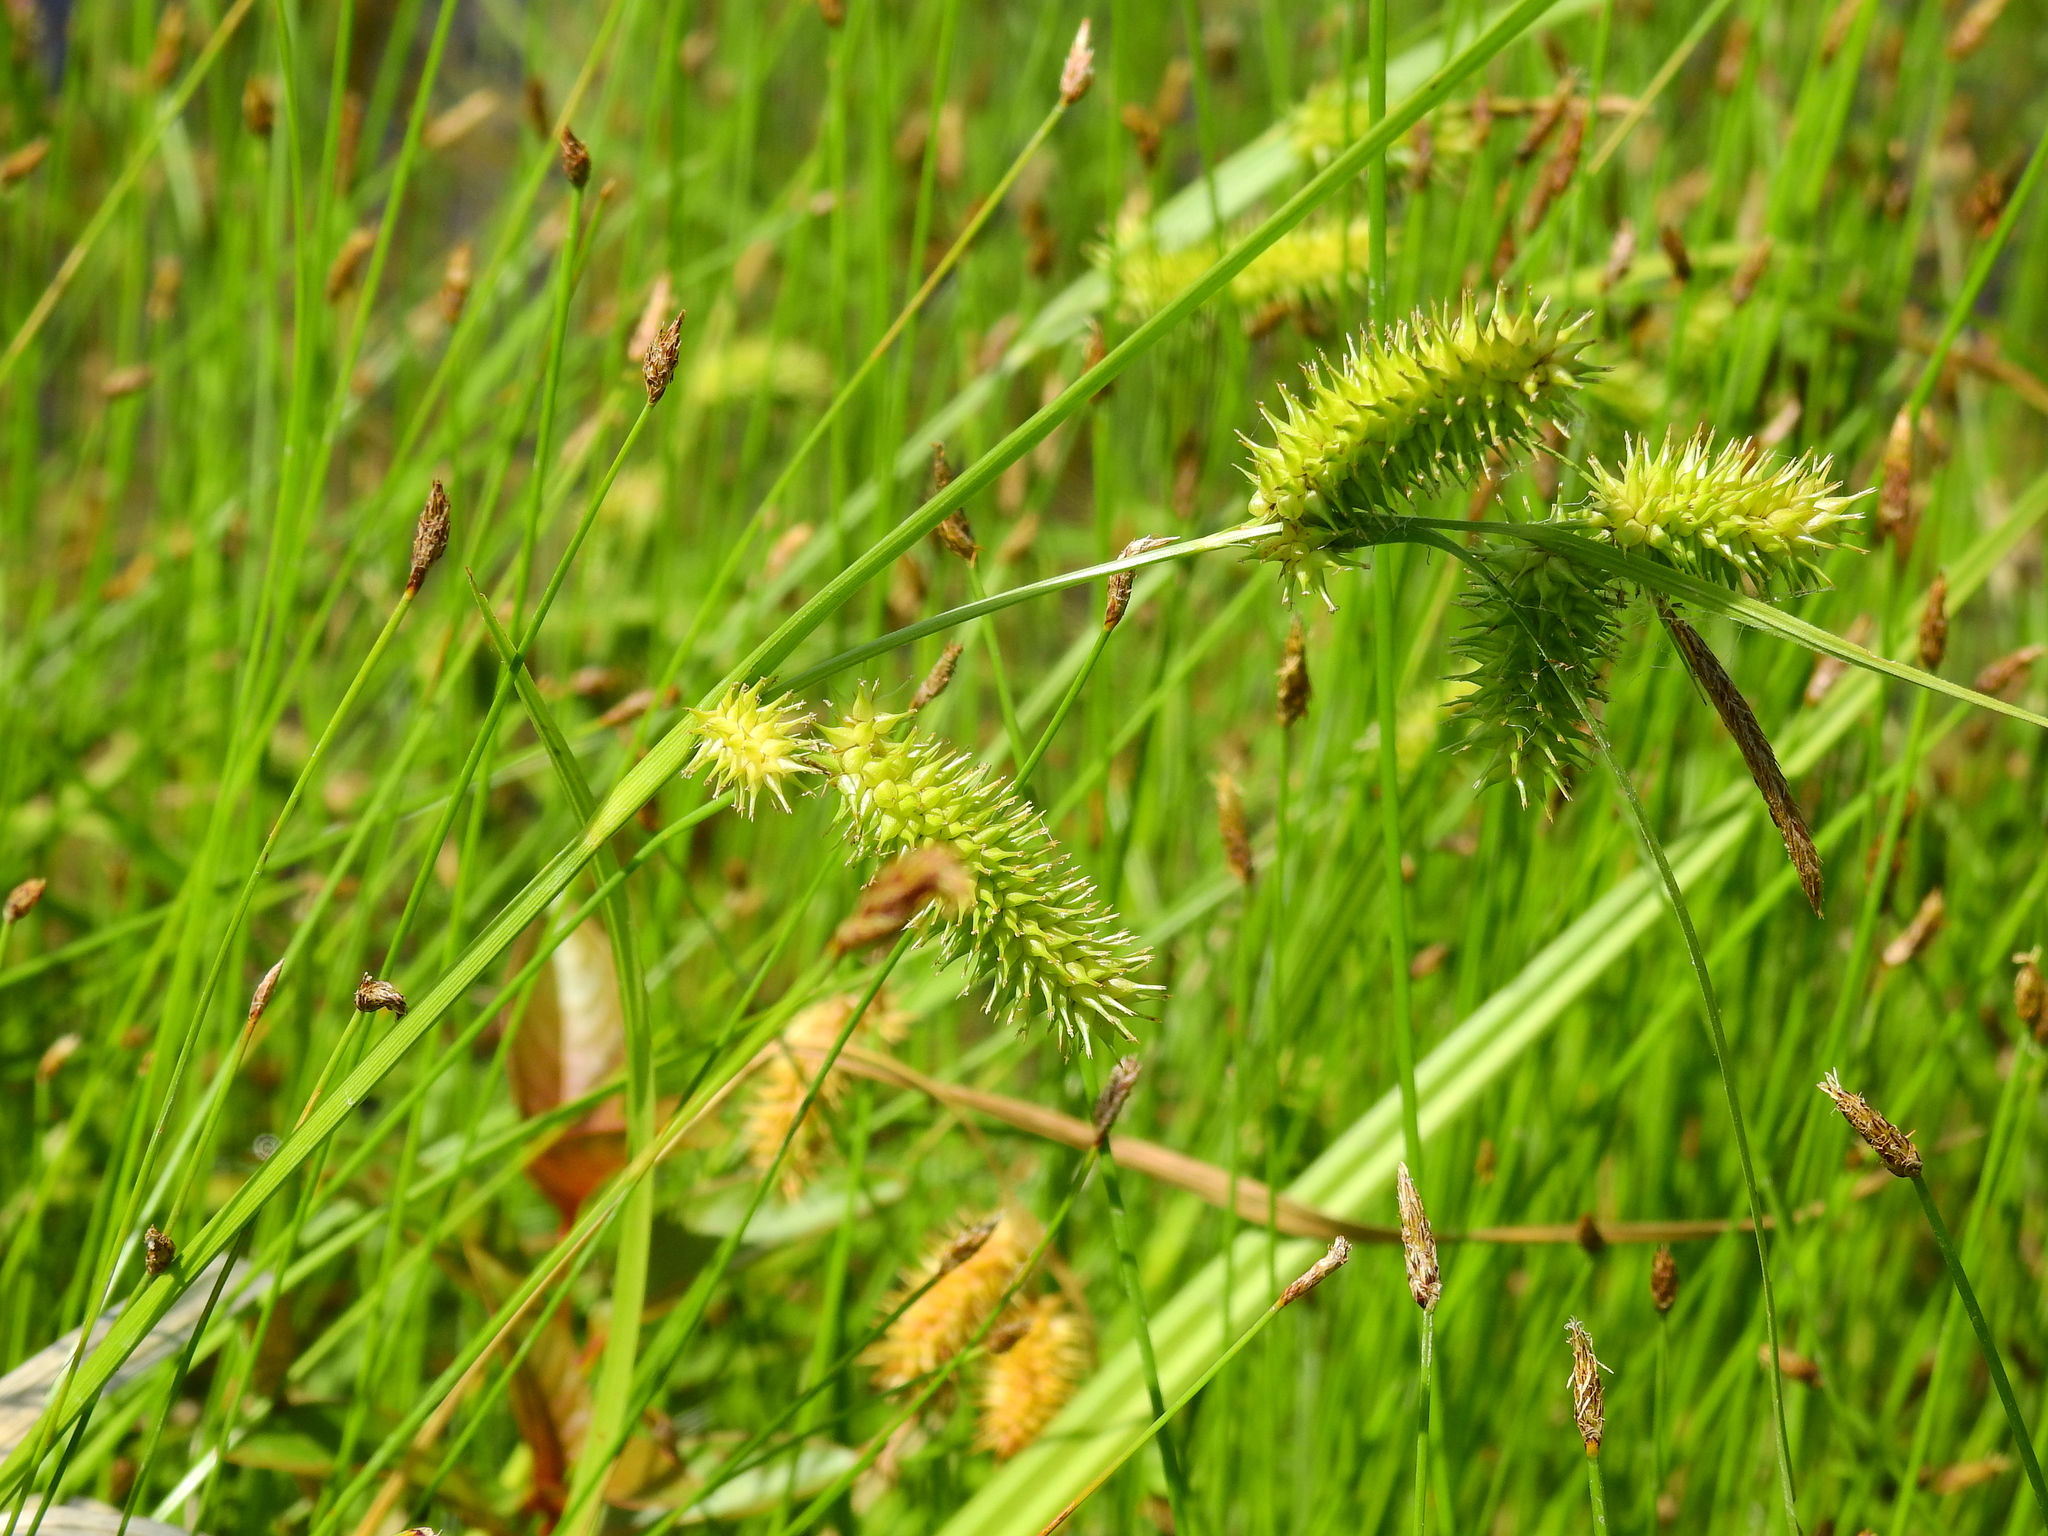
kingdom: Plantae
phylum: Tracheophyta
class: Liliopsida
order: Poales
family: Cyperaceae
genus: Carex
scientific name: Carex hystericina
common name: Bottlebrush sedge
